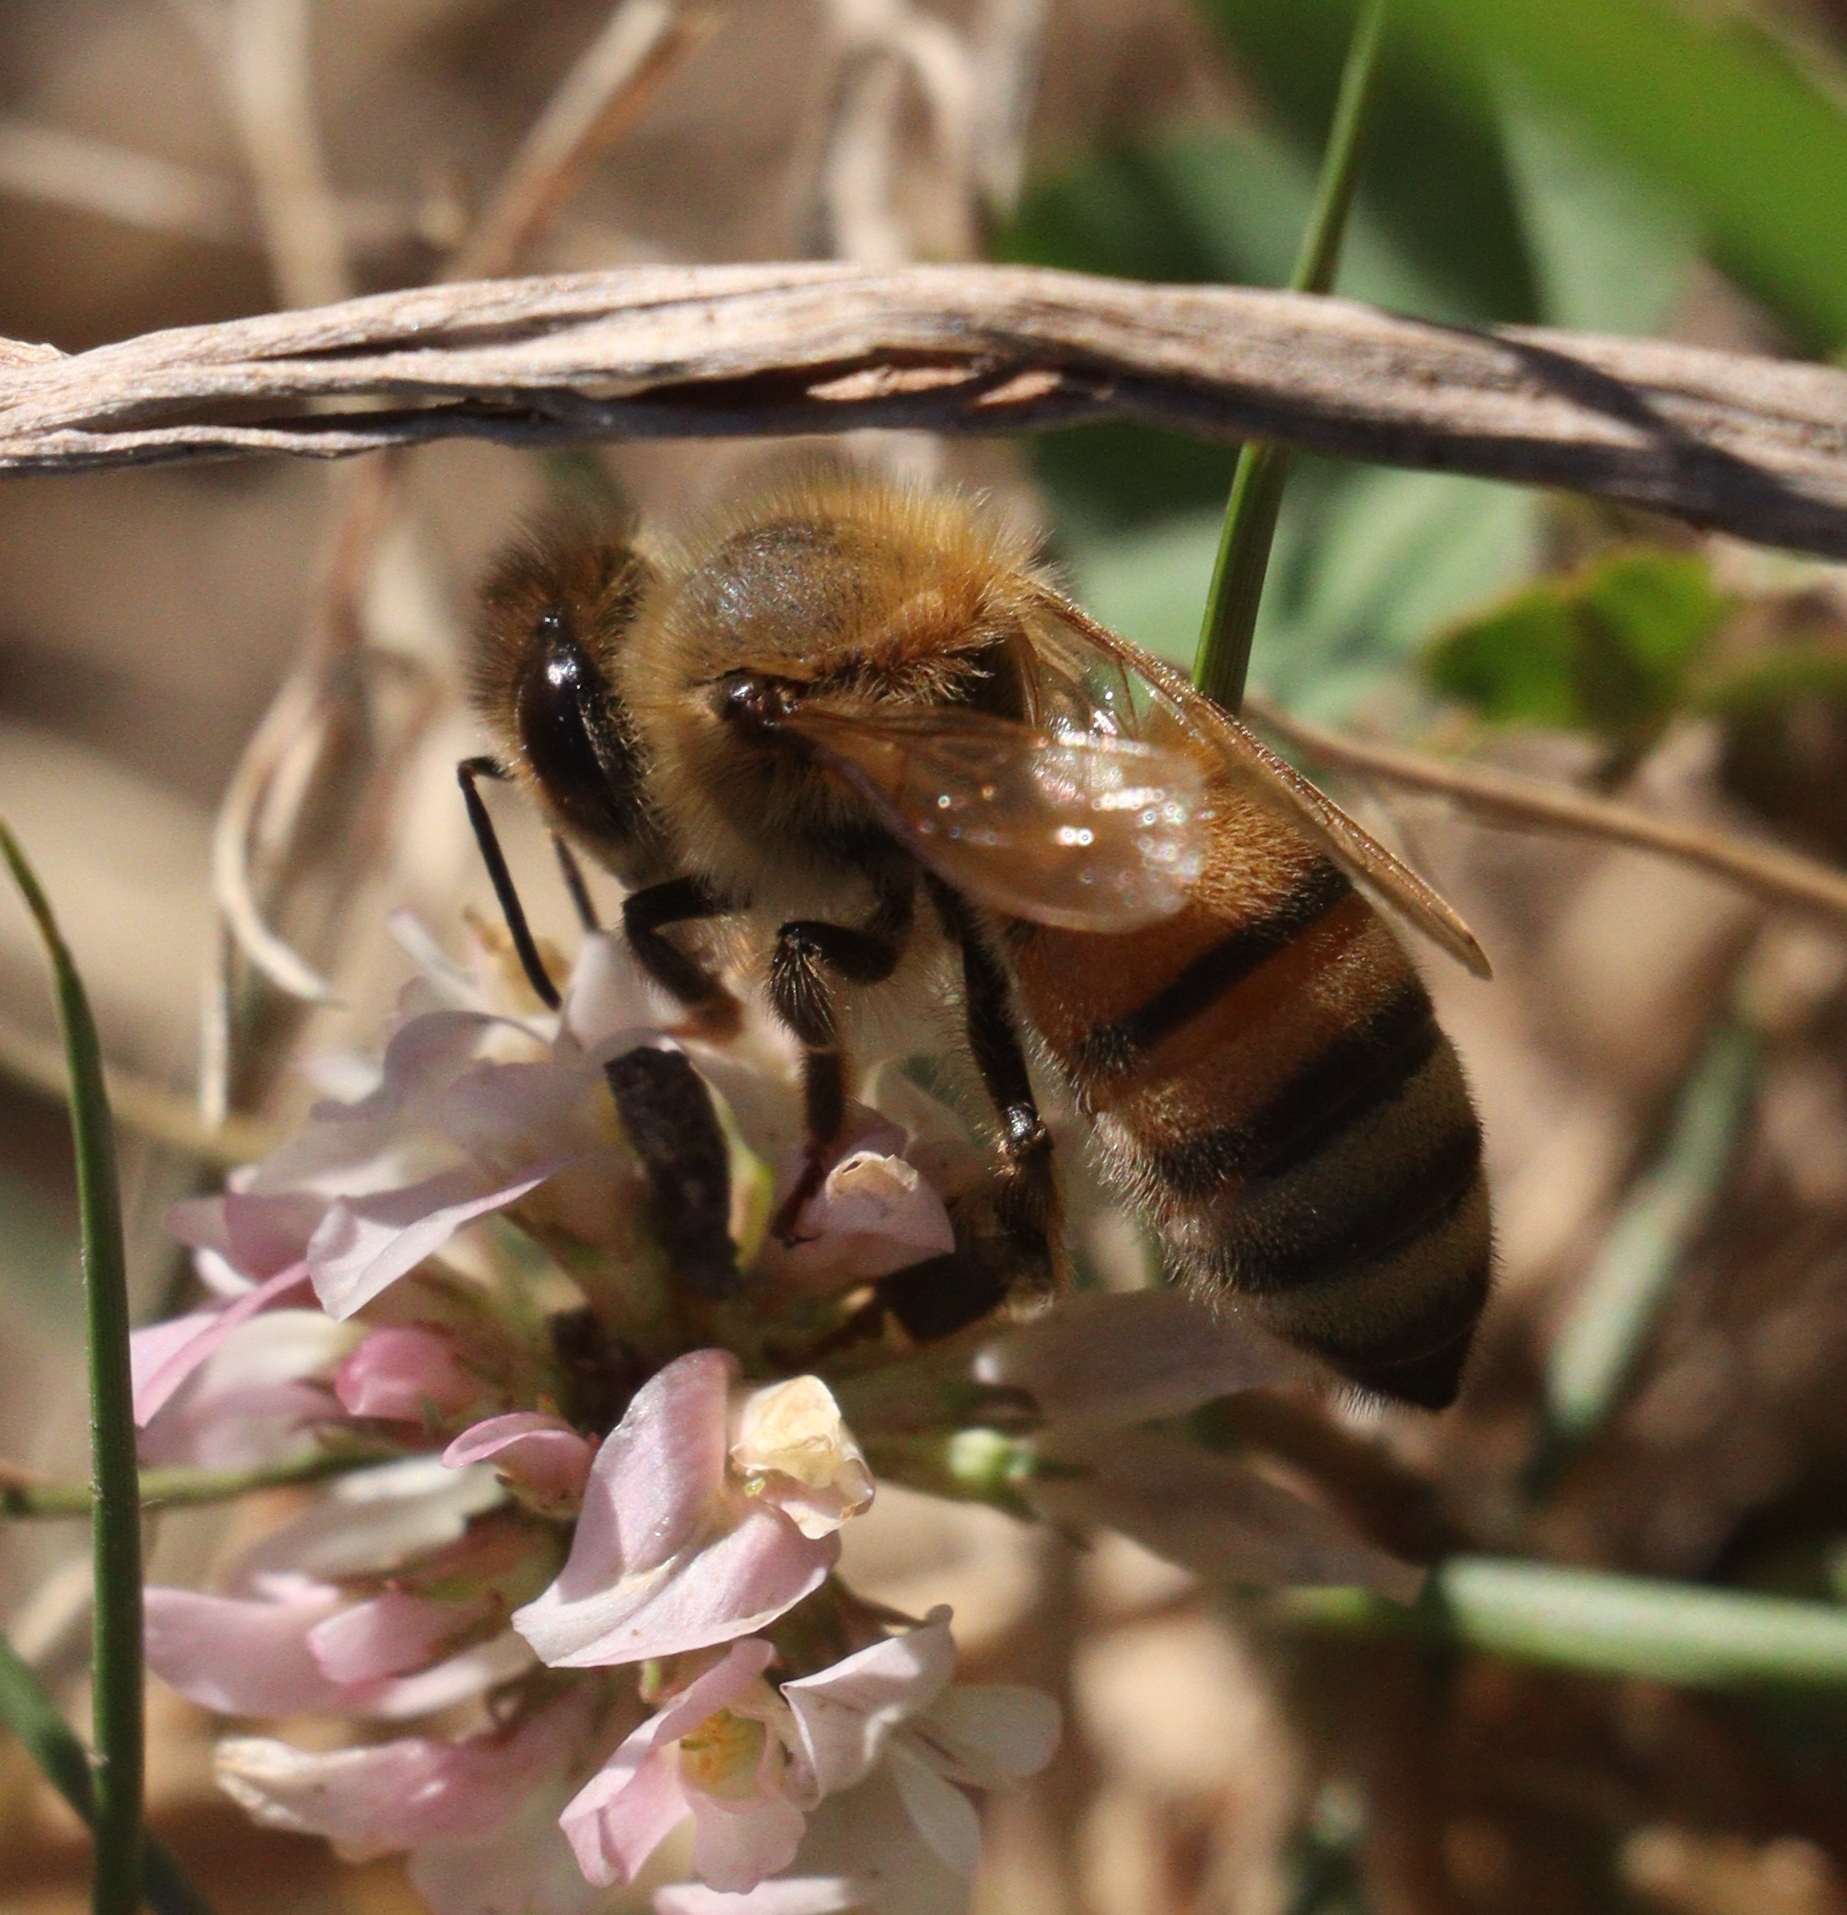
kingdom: Animalia
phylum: Arthropoda
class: Insecta
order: Hymenoptera
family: Apidae
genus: Apis
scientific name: Apis mellifera
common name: Honey bee
